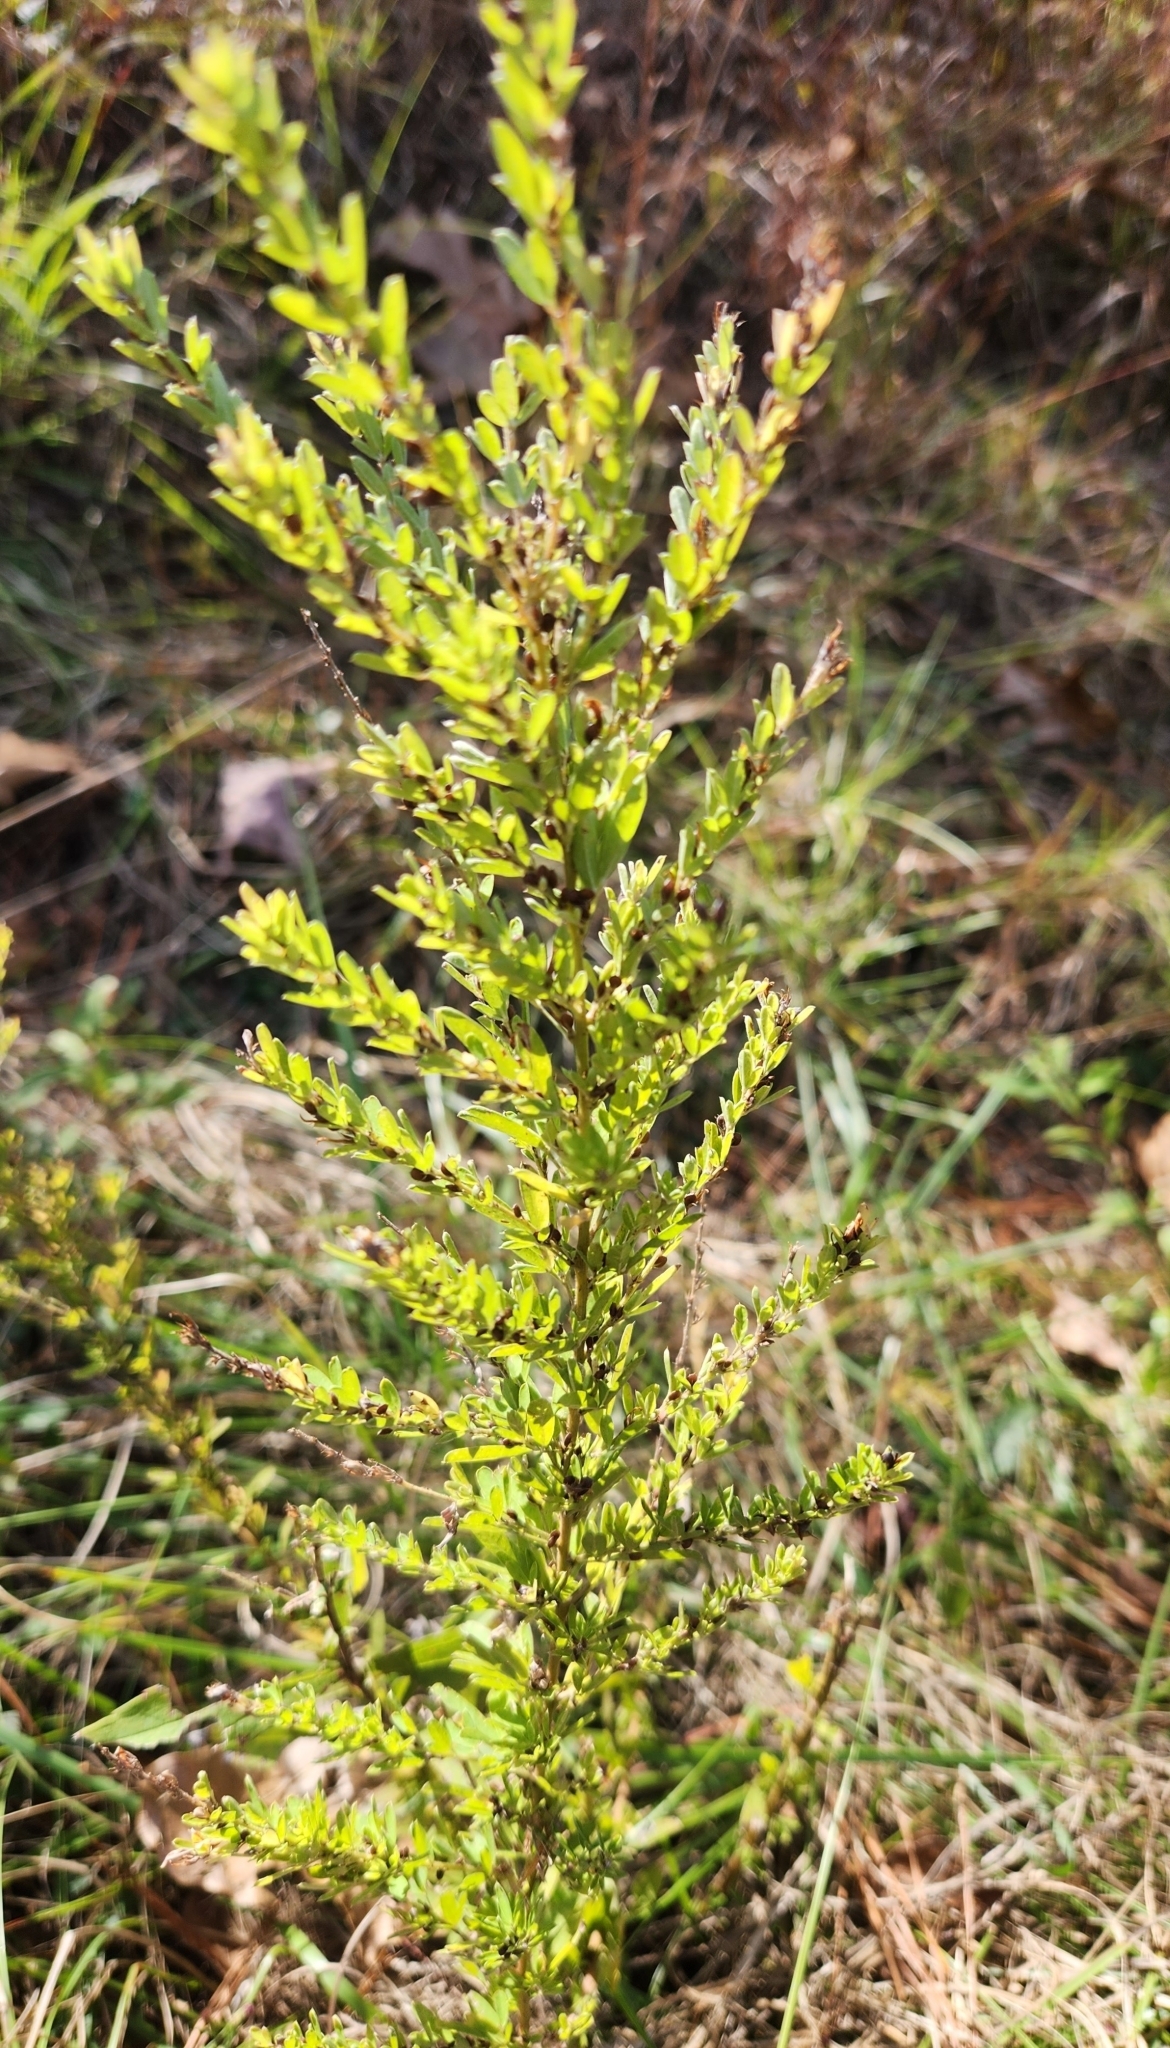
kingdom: Plantae
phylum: Tracheophyta
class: Magnoliopsida
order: Fabales
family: Fabaceae
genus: Lespedeza
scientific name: Lespedeza cuneata
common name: Chinese bush-clover
